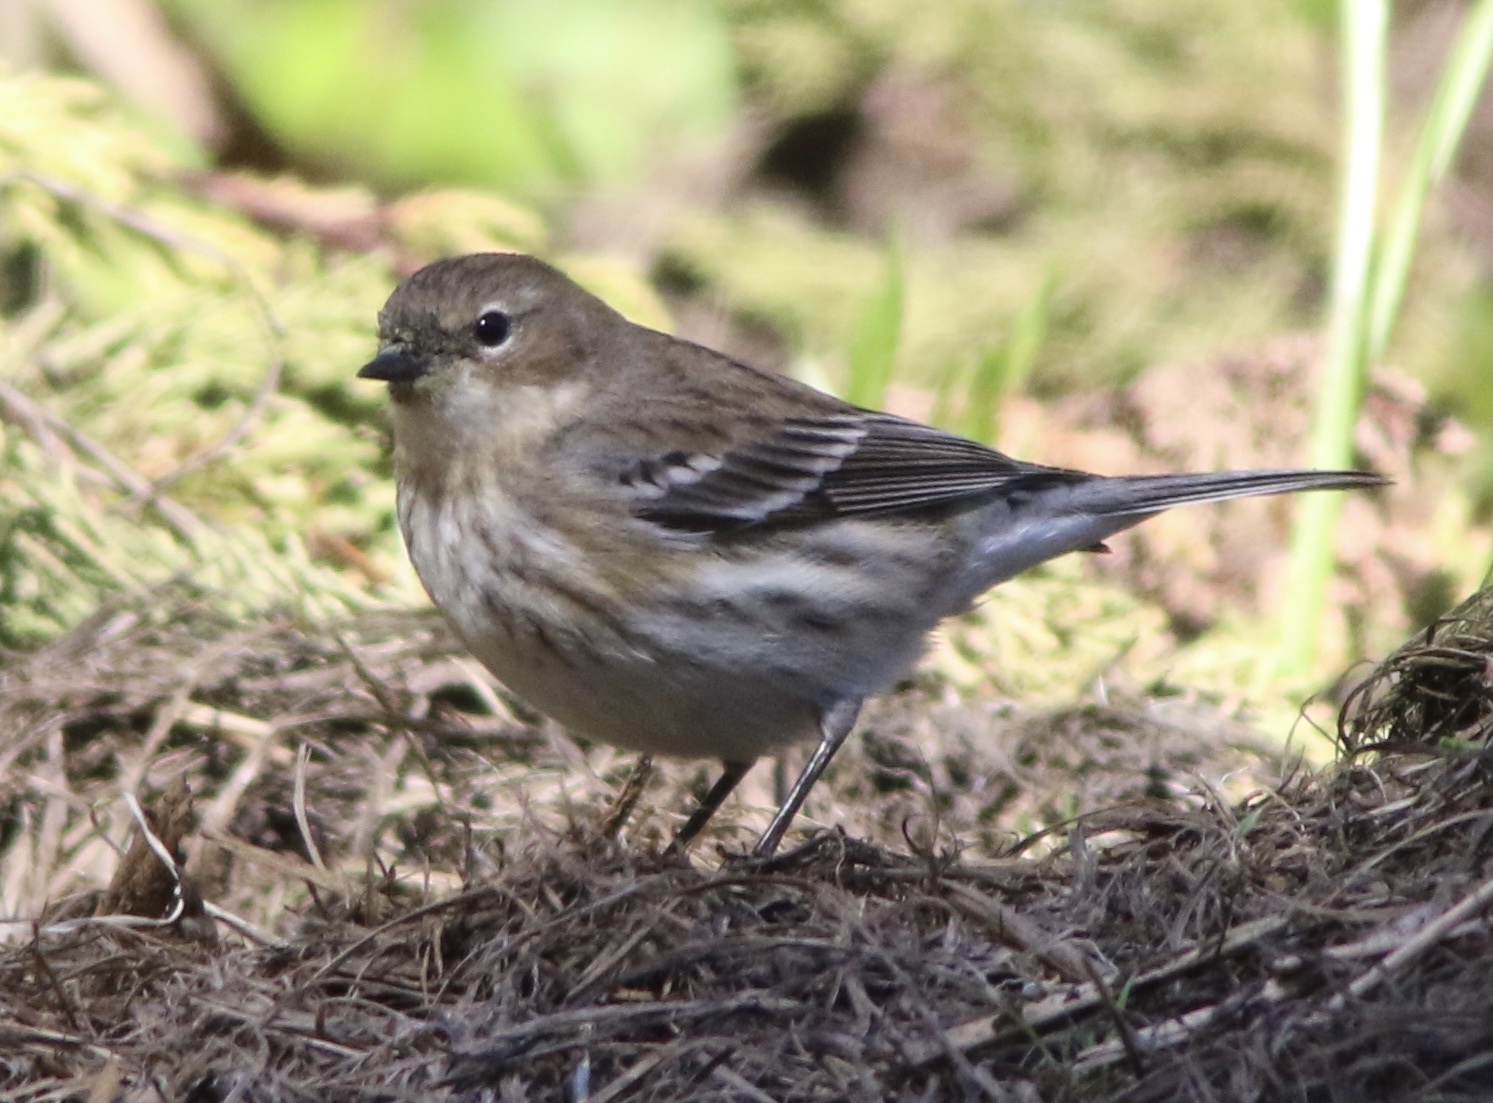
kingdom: Animalia
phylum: Chordata
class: Aves
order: Passeriformes
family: Parulidae
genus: Setophaga
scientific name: Setophaga coronata
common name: Myrtle warbler
